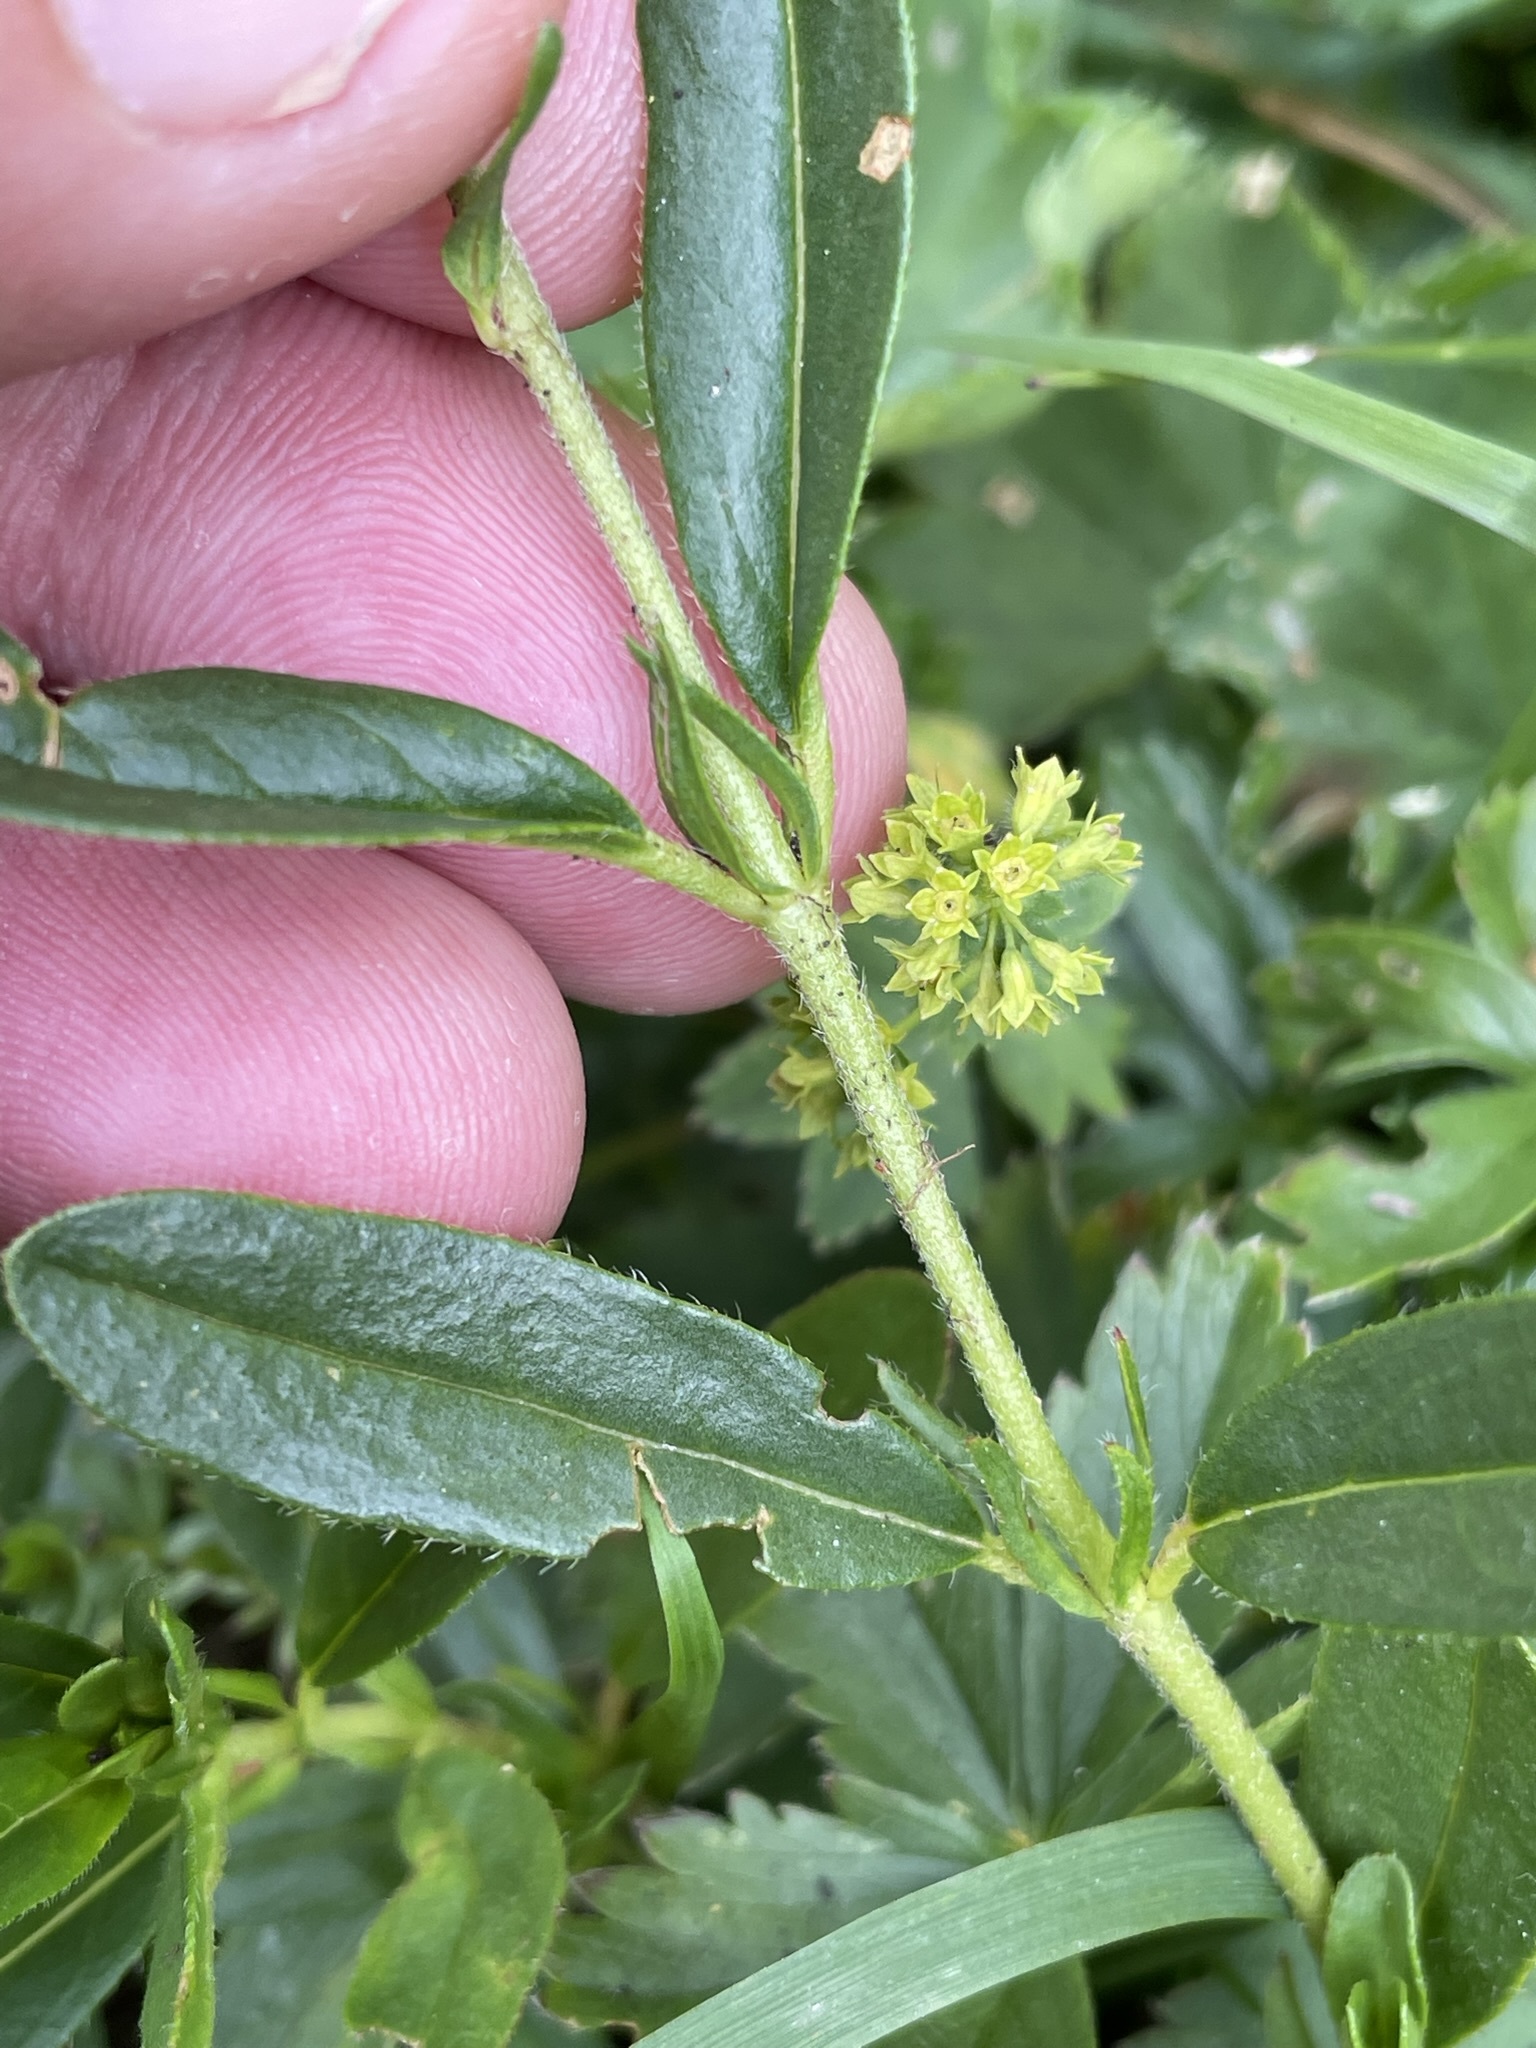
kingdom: Plantae
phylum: Tracheophyta
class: Magnoliopsida
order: Malvales
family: Cistaceae
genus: Helianthemum
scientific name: Helianthemum nummularium
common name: Common rock-rose
